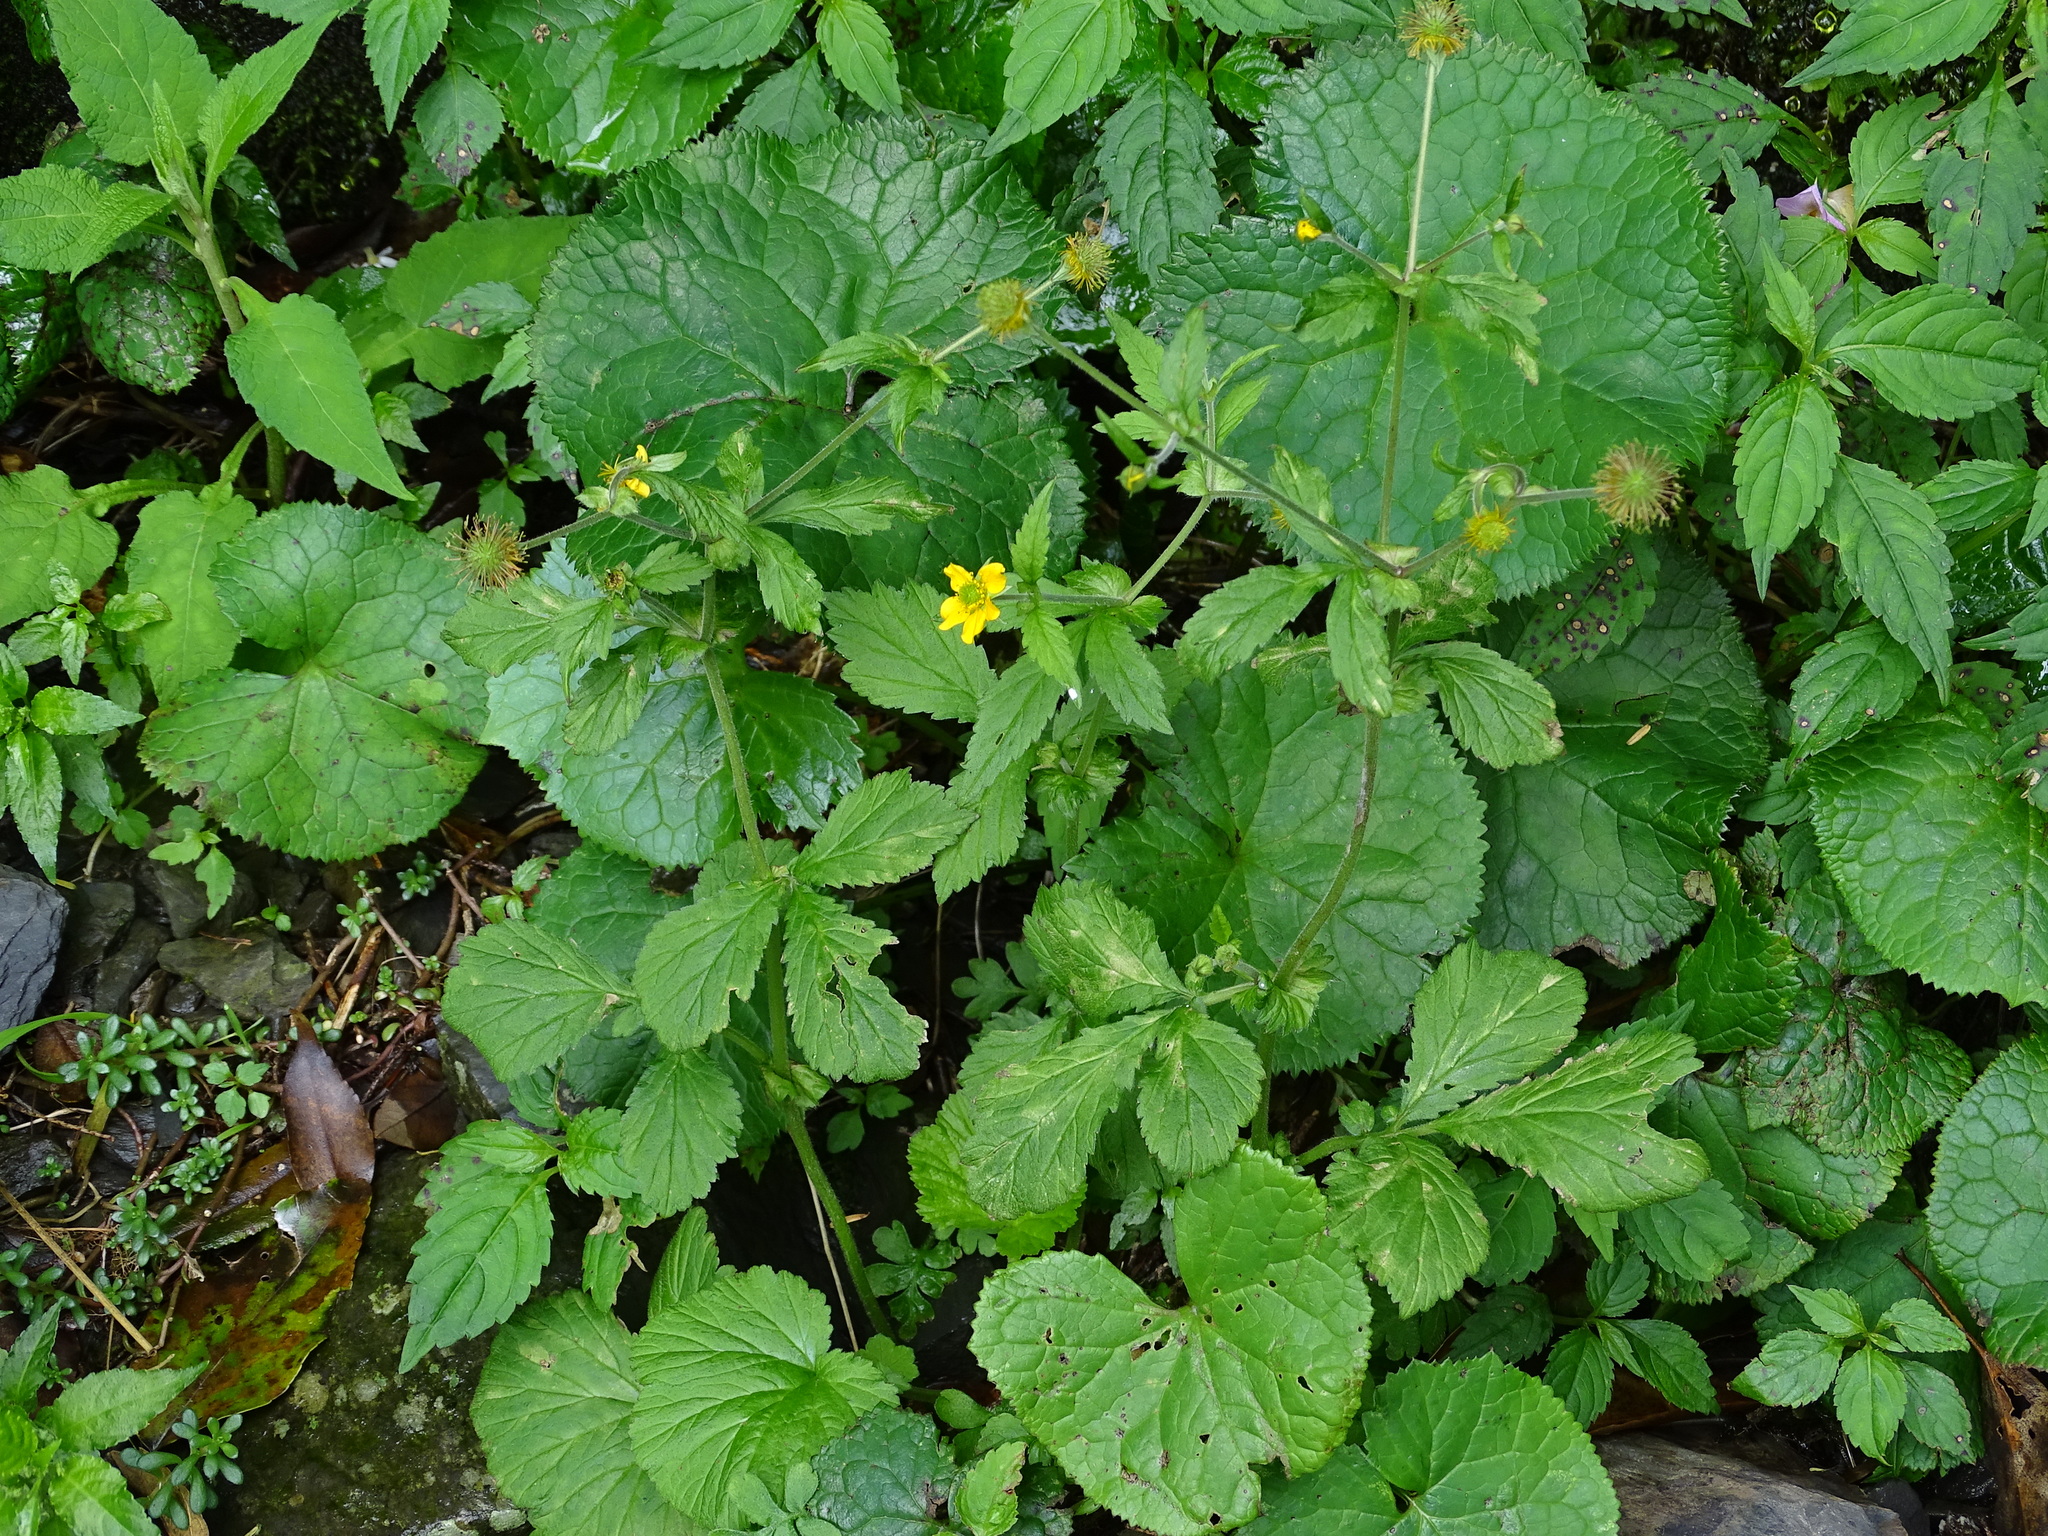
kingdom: Plantae
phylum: Tracheophyta
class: Magnoliopsida
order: Rosales
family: Rosaceae
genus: Geum
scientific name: Geum japonicum
